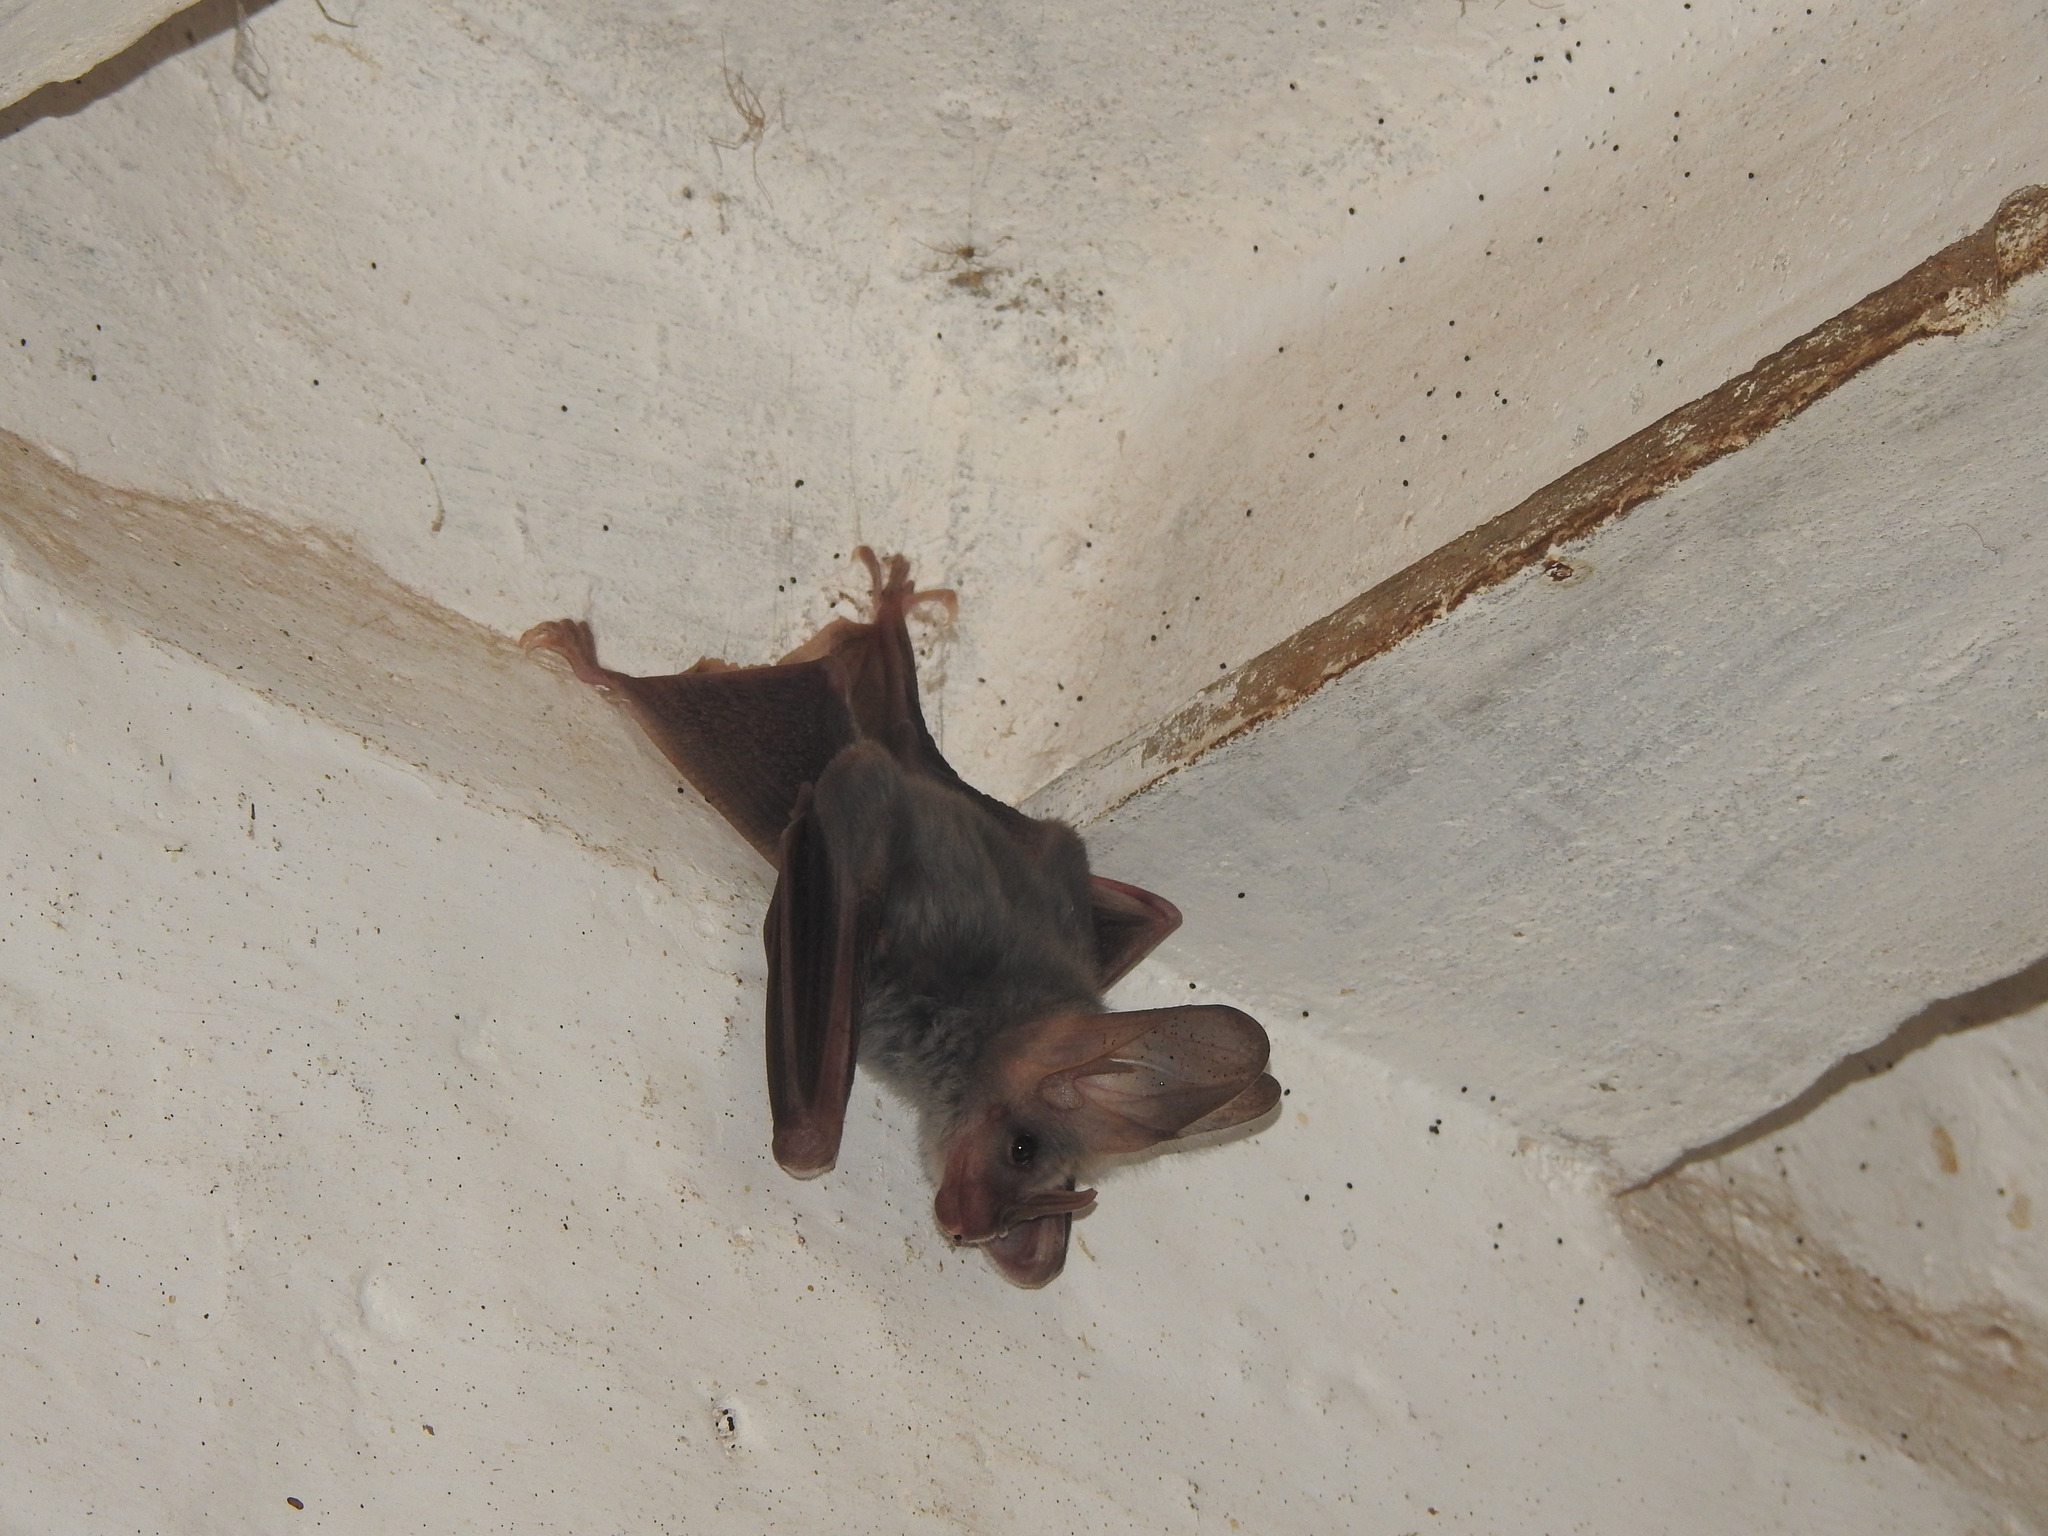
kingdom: Animalia
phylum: Chordata
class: Mammalia
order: Chiroptera
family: Megadermatidae
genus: Lyroderma
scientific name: Lyroderma lyra
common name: Greater false vampire bat
